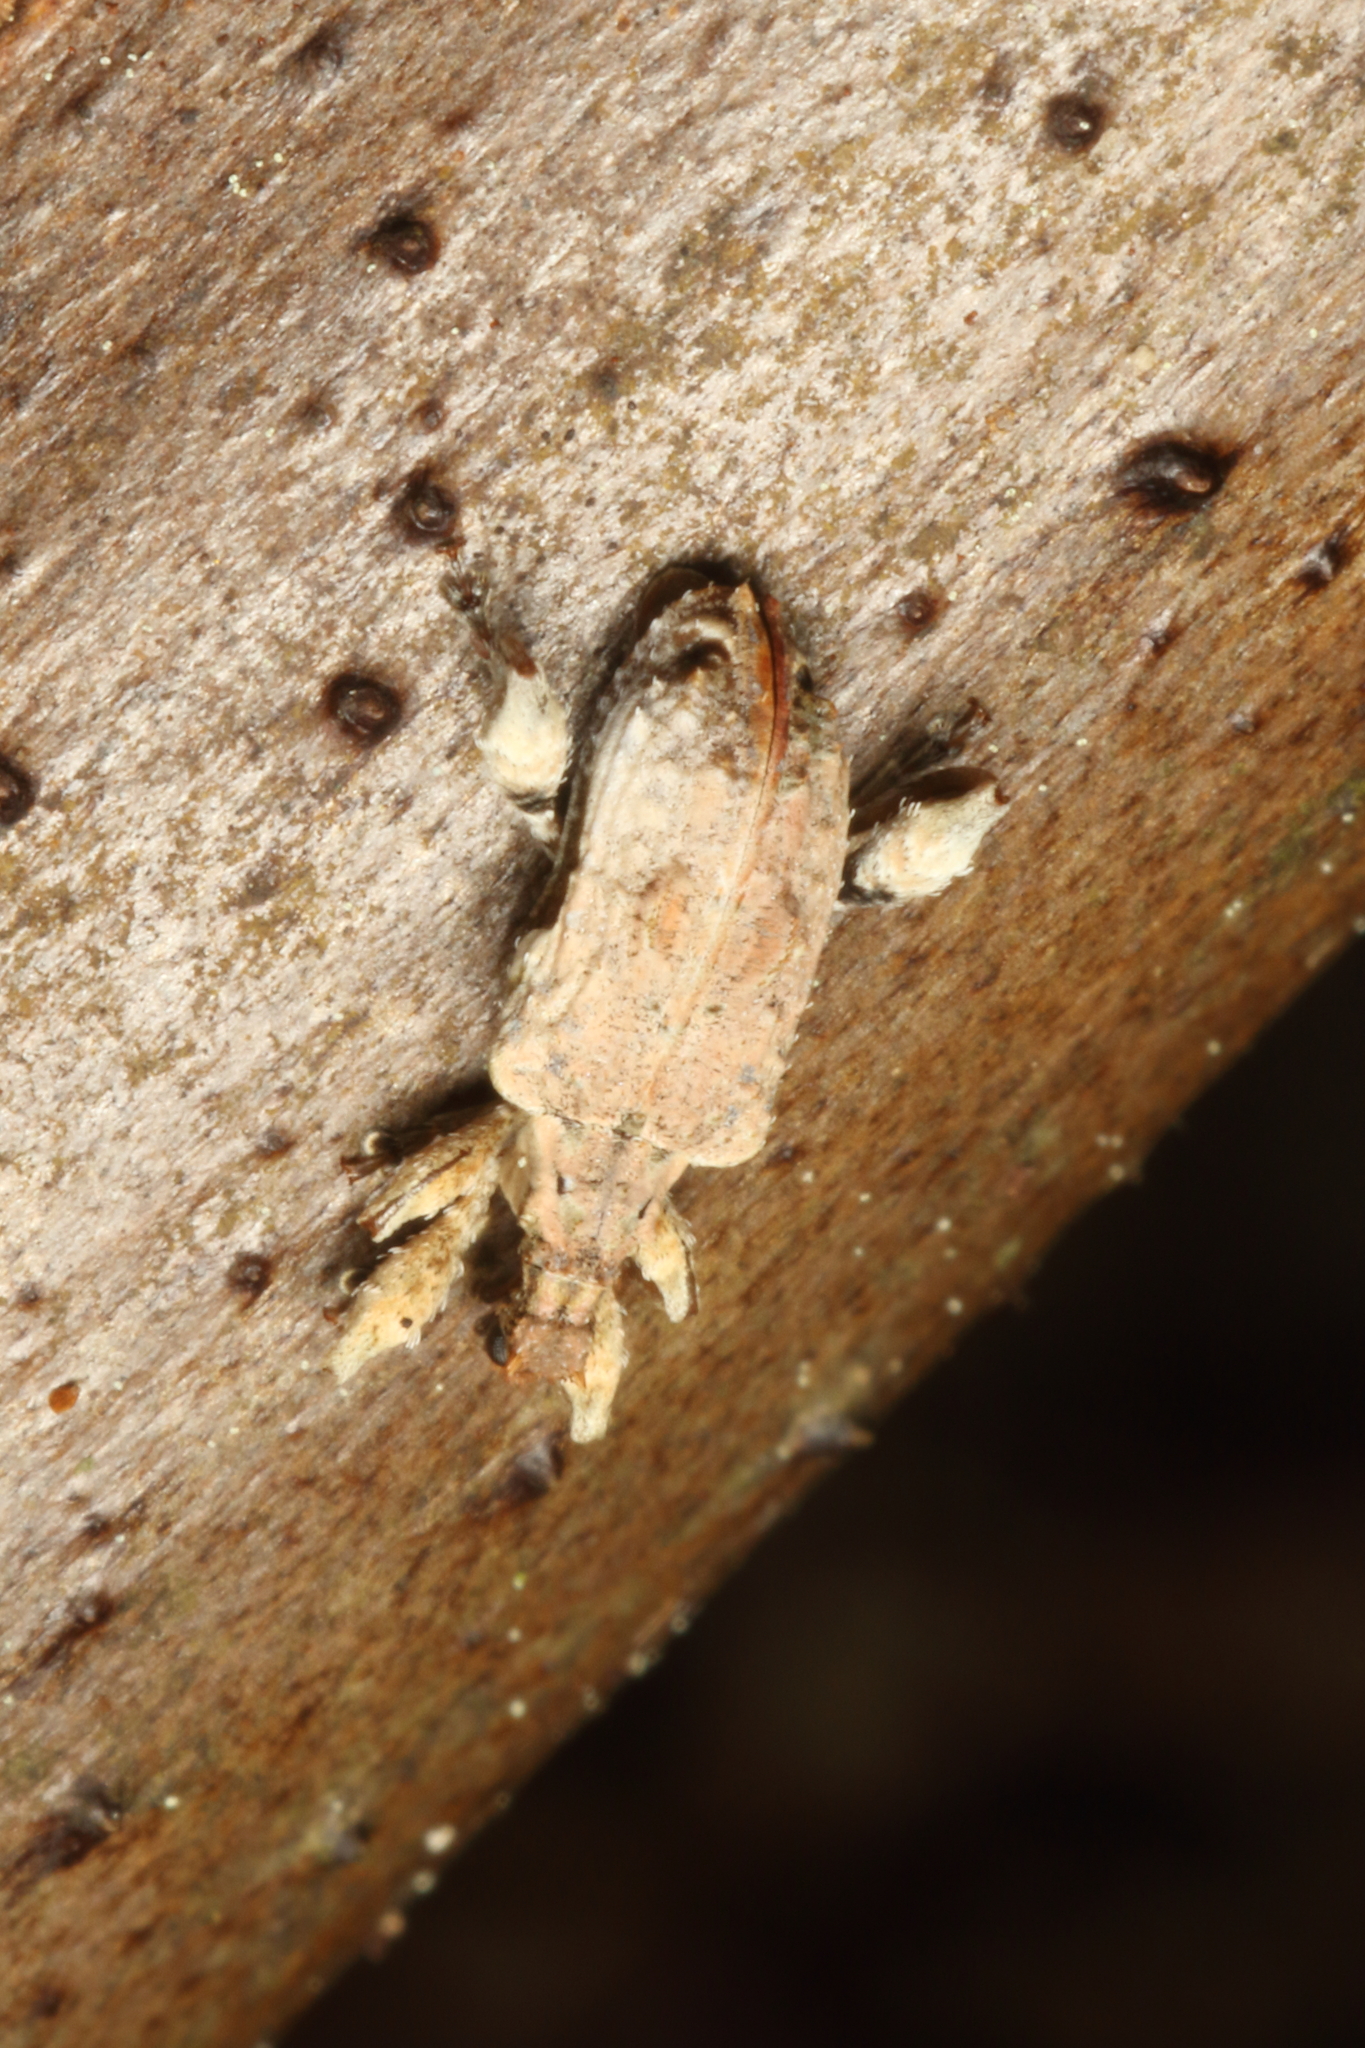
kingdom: Animalia
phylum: Arthropoda
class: Insecta
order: Coleoptera
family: Curculionidae
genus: Stephanorhynchus
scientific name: Stephanorhynchus curvipes
